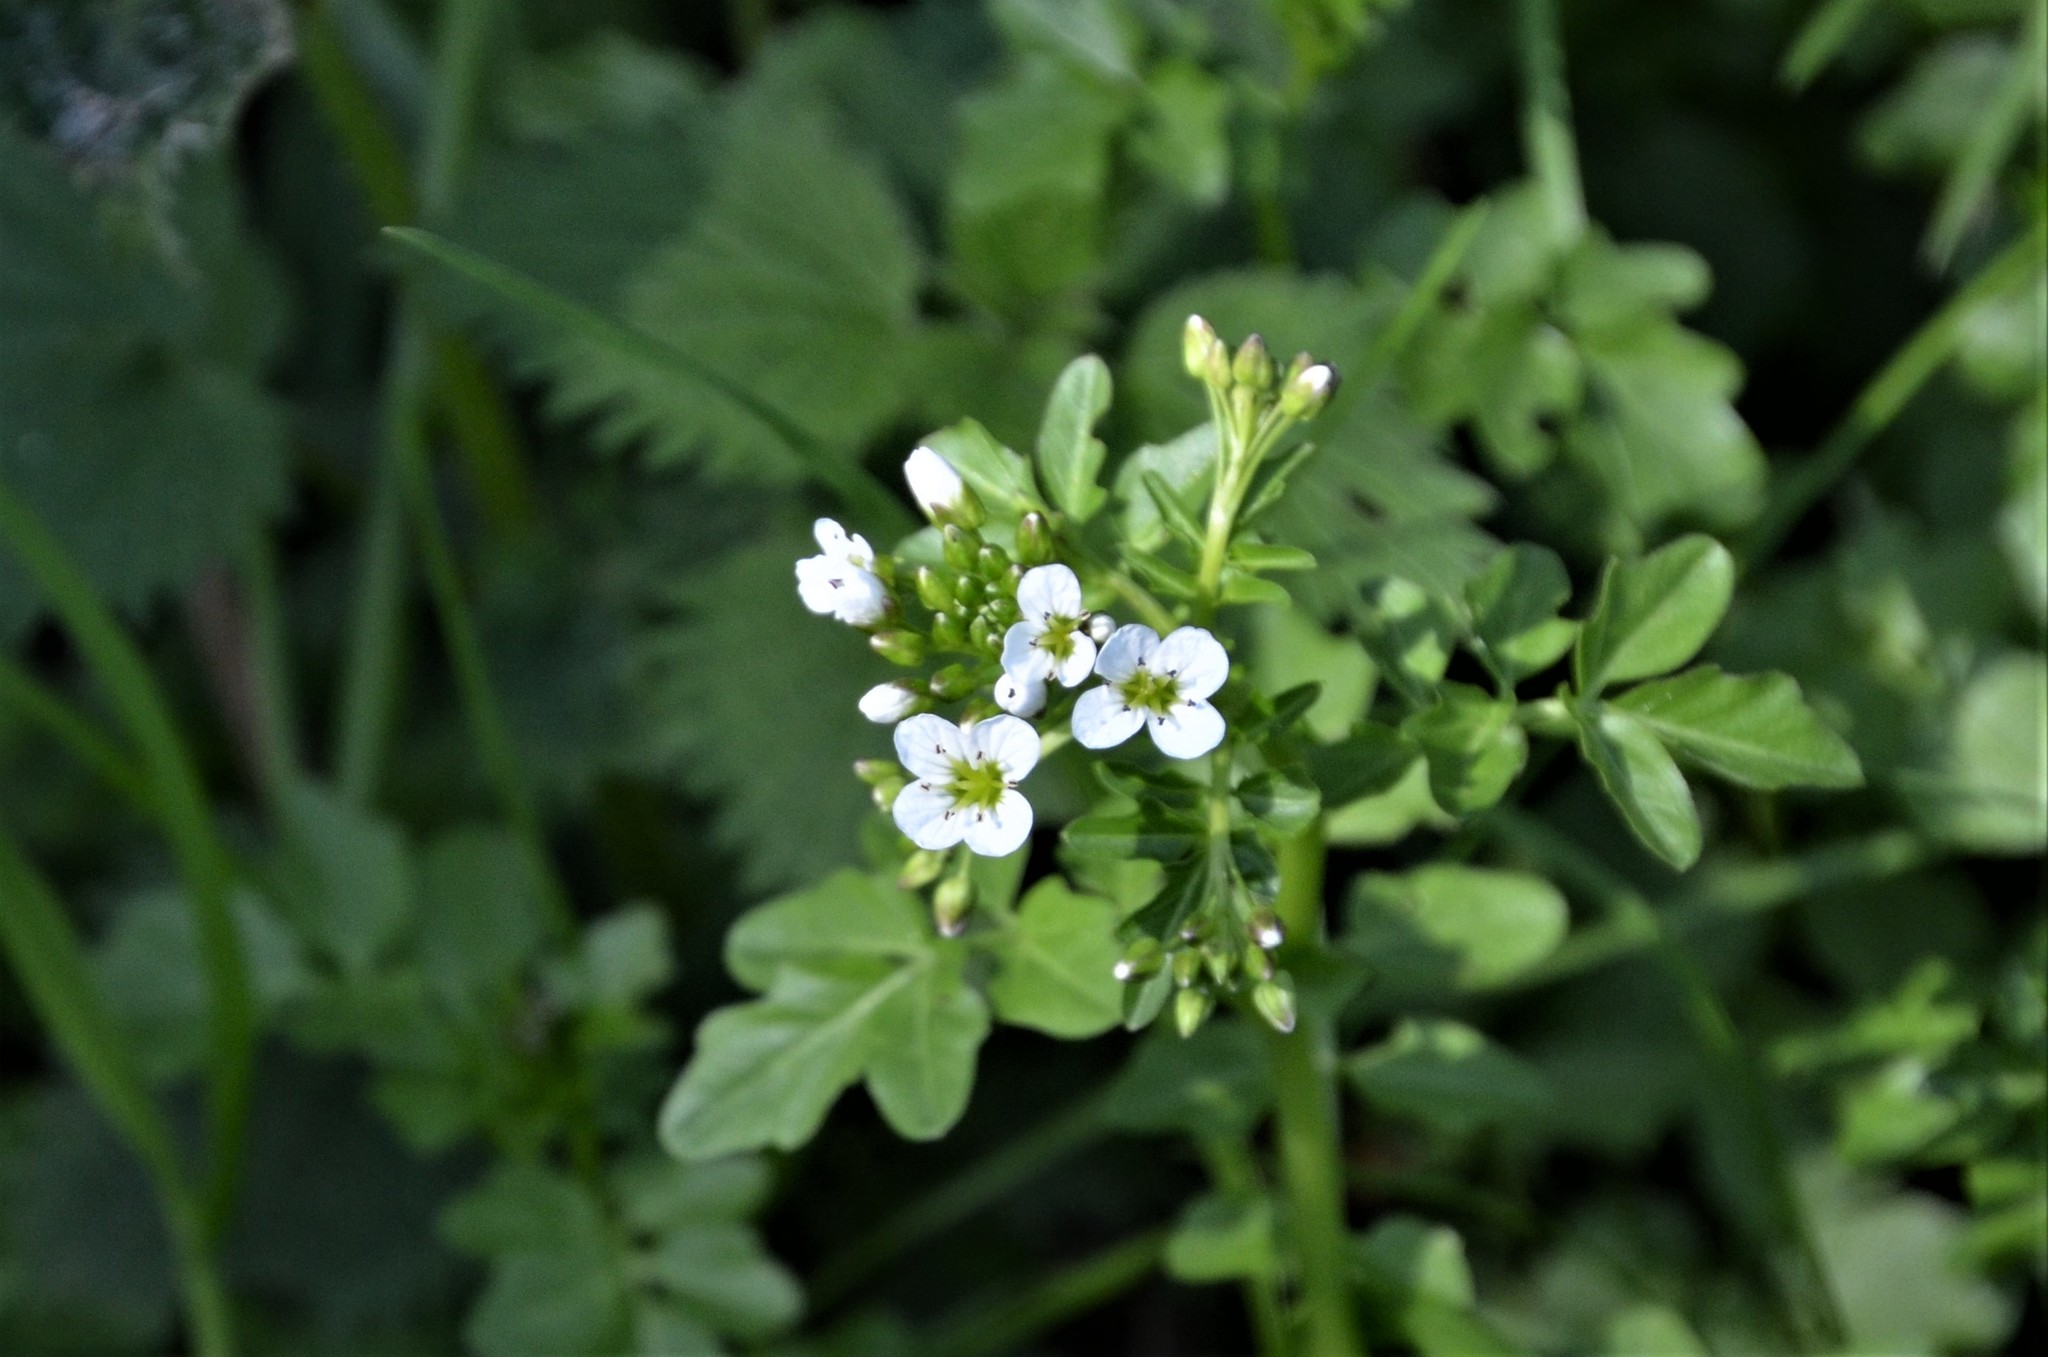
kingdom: Plantae
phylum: Tracheophyta
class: Magnoliopsida
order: Brassicales
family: Brassicaceae
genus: Cardamine
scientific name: Cardamine amara
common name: Large bitter-cress
